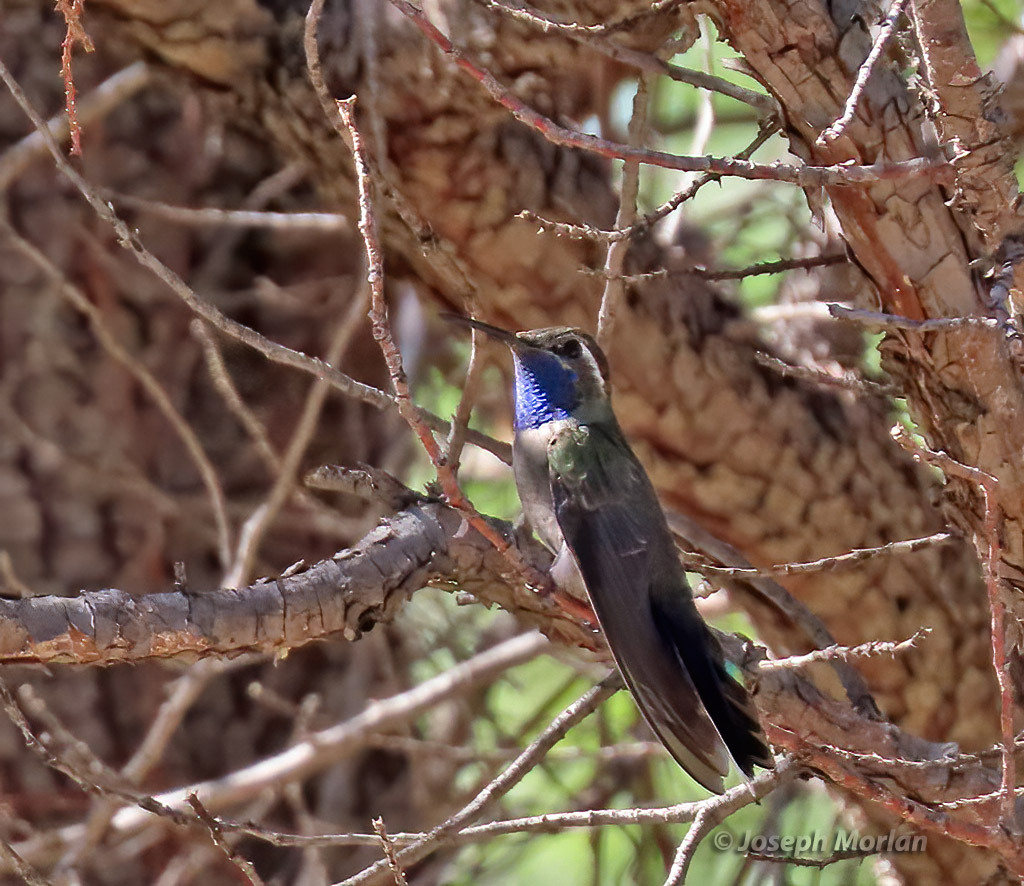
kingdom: Animalia
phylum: Chordata
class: Aves
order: Apodiformes
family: Trochilidae
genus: Lampornis
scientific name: Lampornis clemenciae
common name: Blue-throated mountaingem
